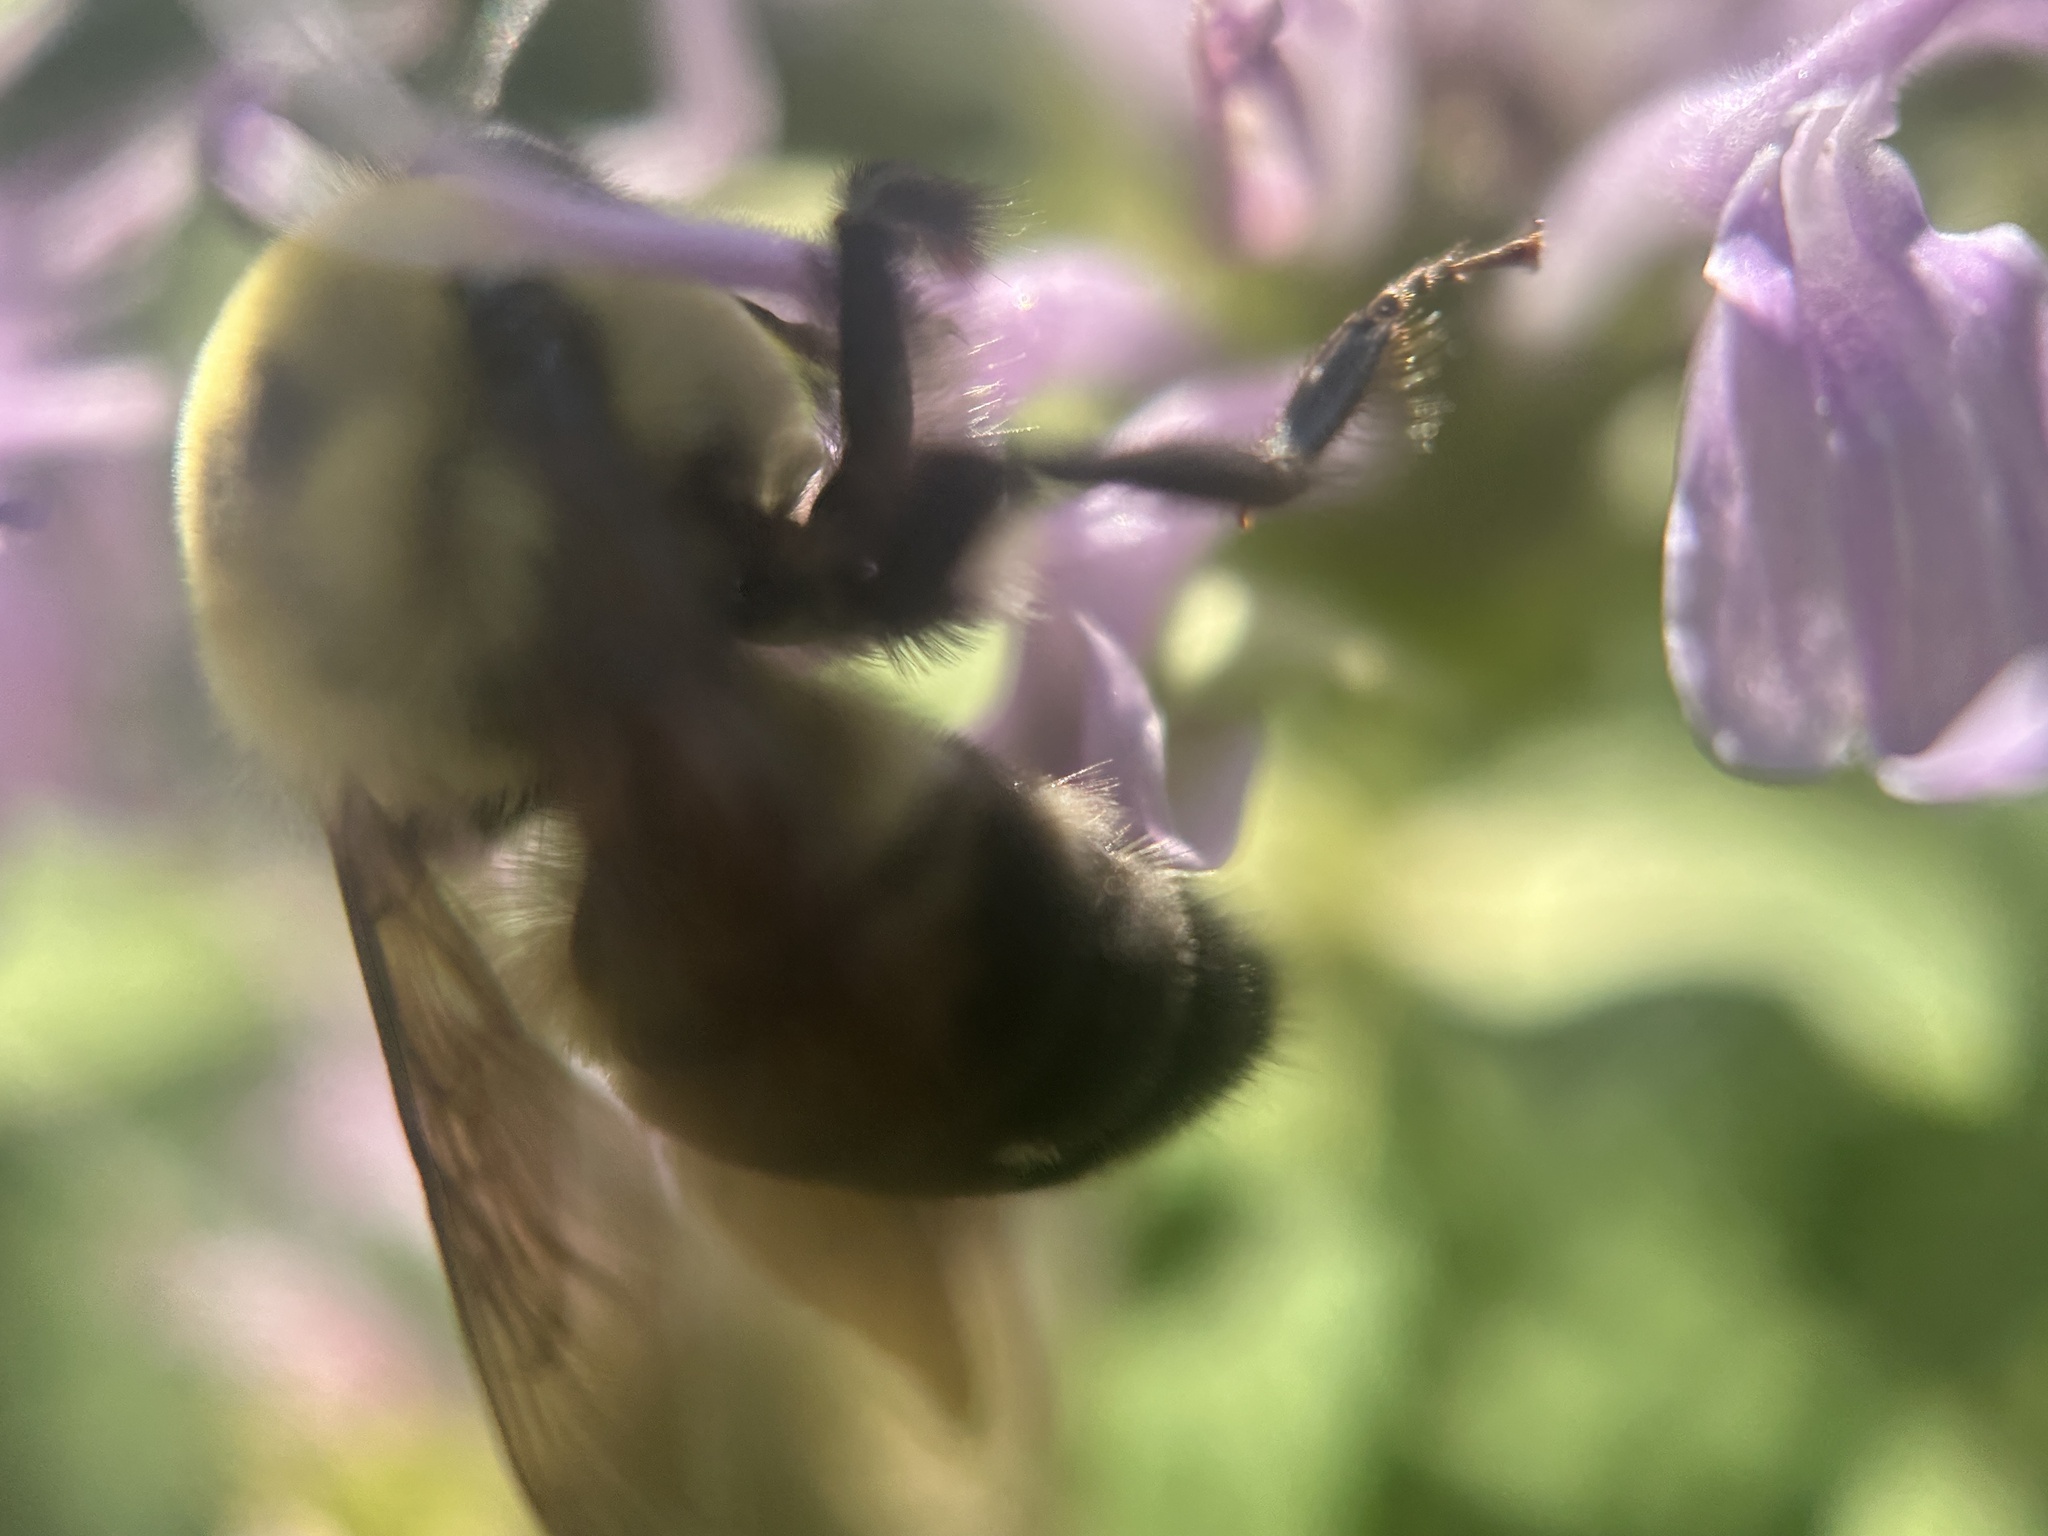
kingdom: Animalia
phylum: Arthropoda
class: Insecta
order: Hymenoptera
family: Apidae
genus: Bombus
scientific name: Bombus griseocollis
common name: Brown-belted bumble bee
